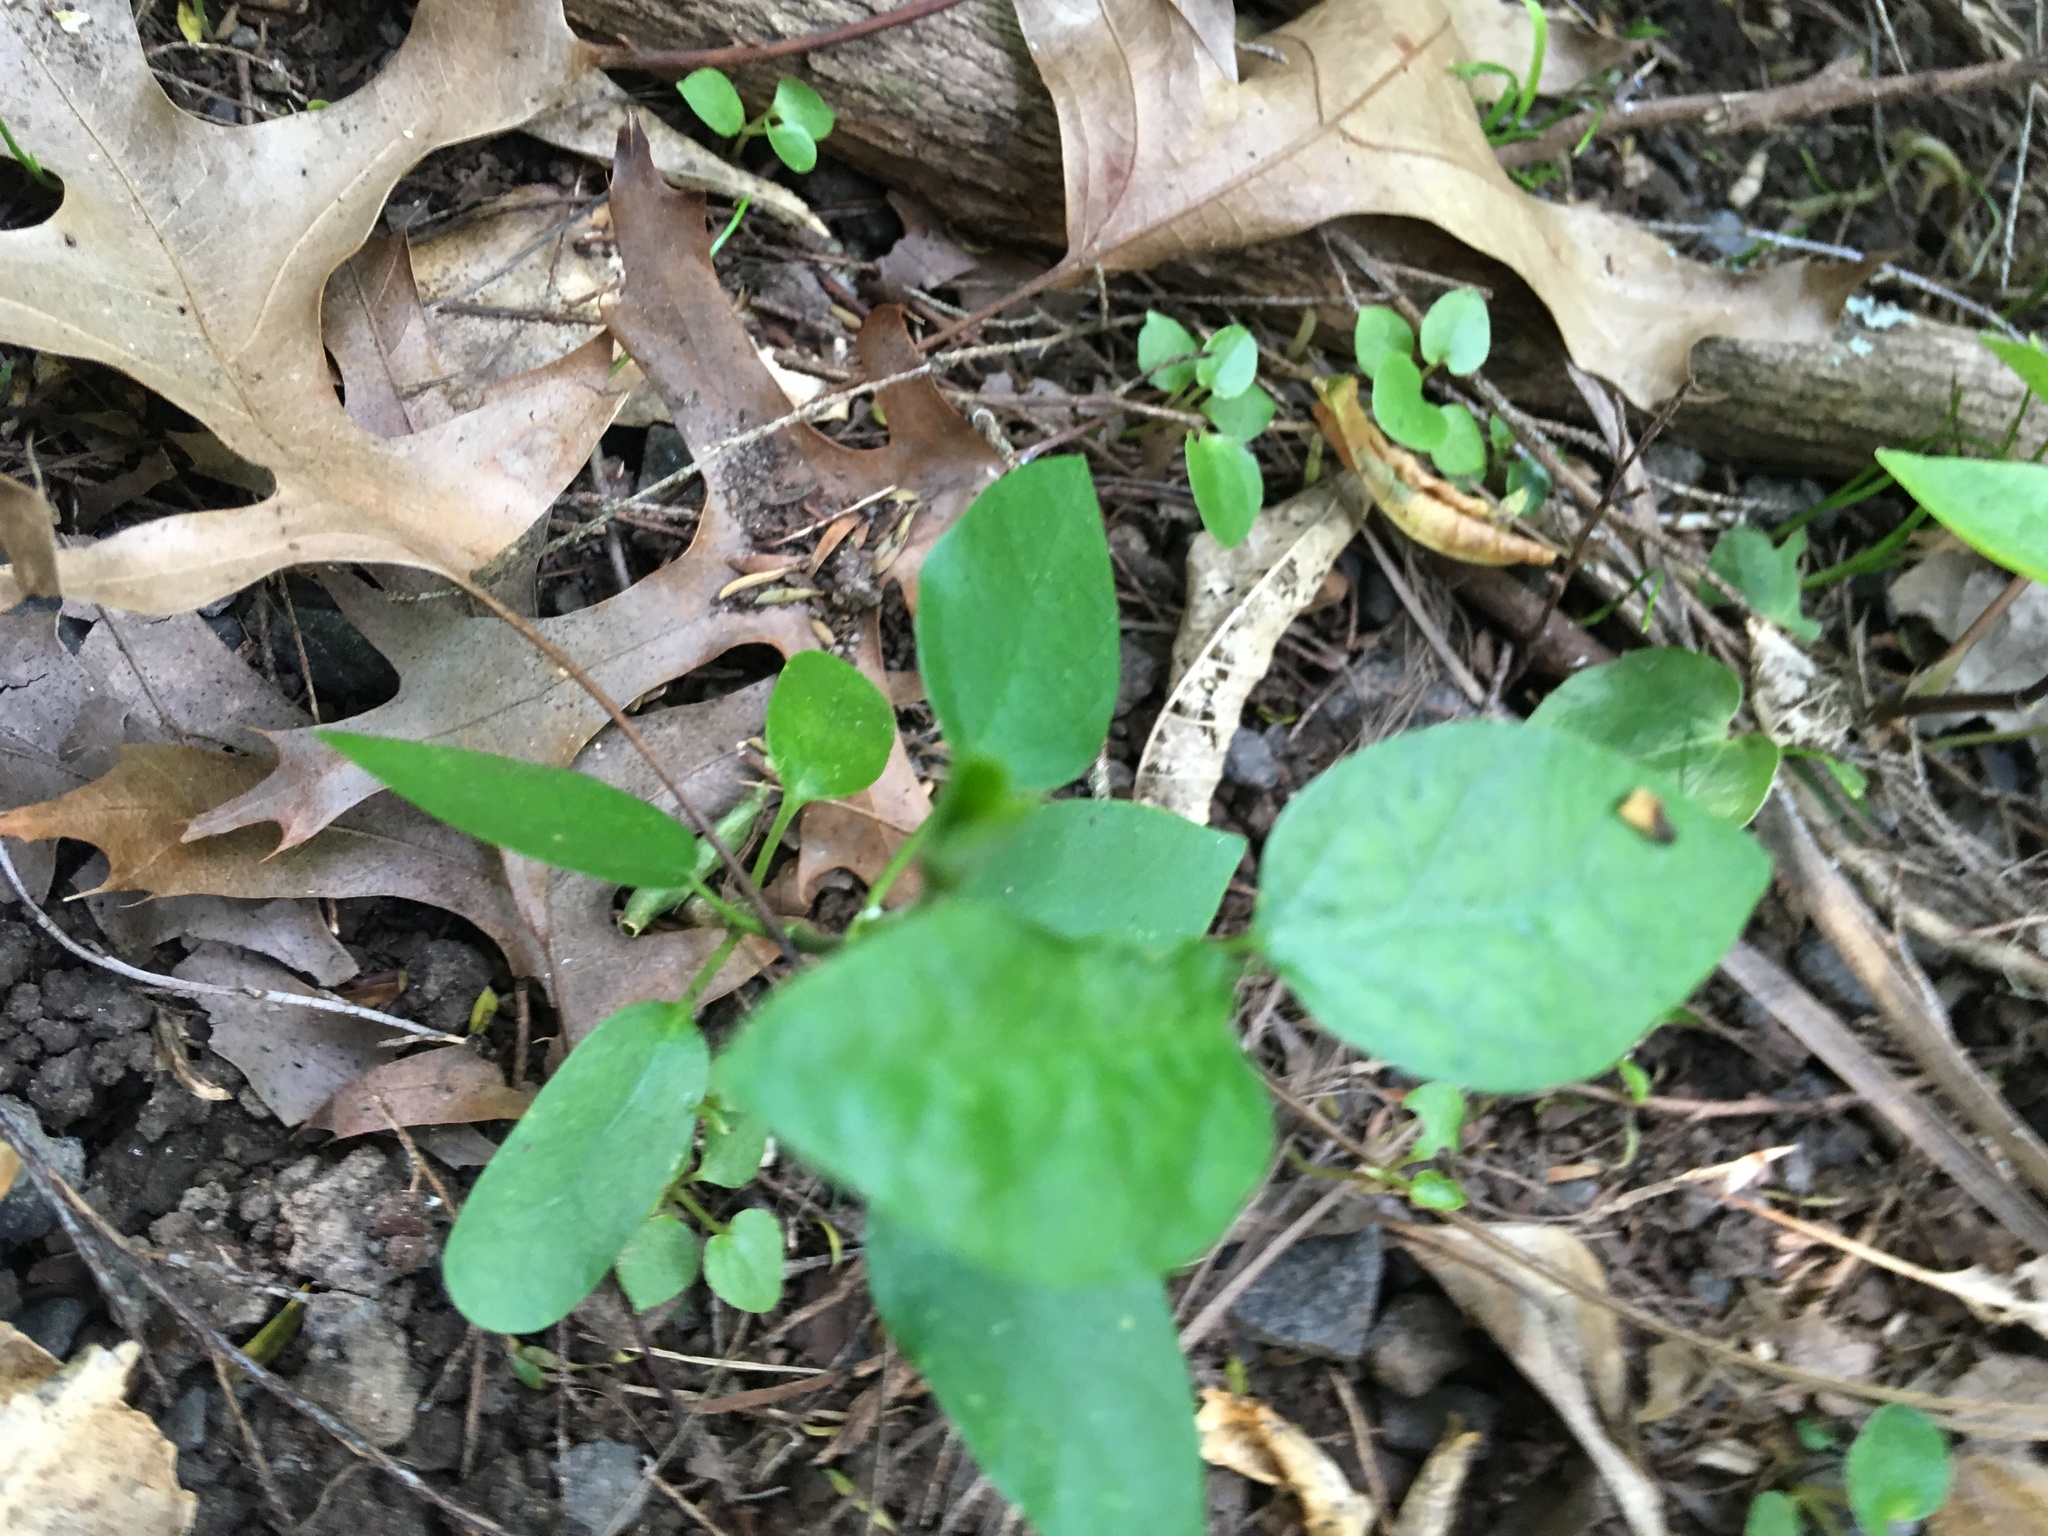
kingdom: Plantae
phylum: Tracheophyta
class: Magnoliopsida
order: Gentianales
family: Apocynaceae
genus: Araujia
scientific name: Araujia sericifera
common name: White bladderflower
